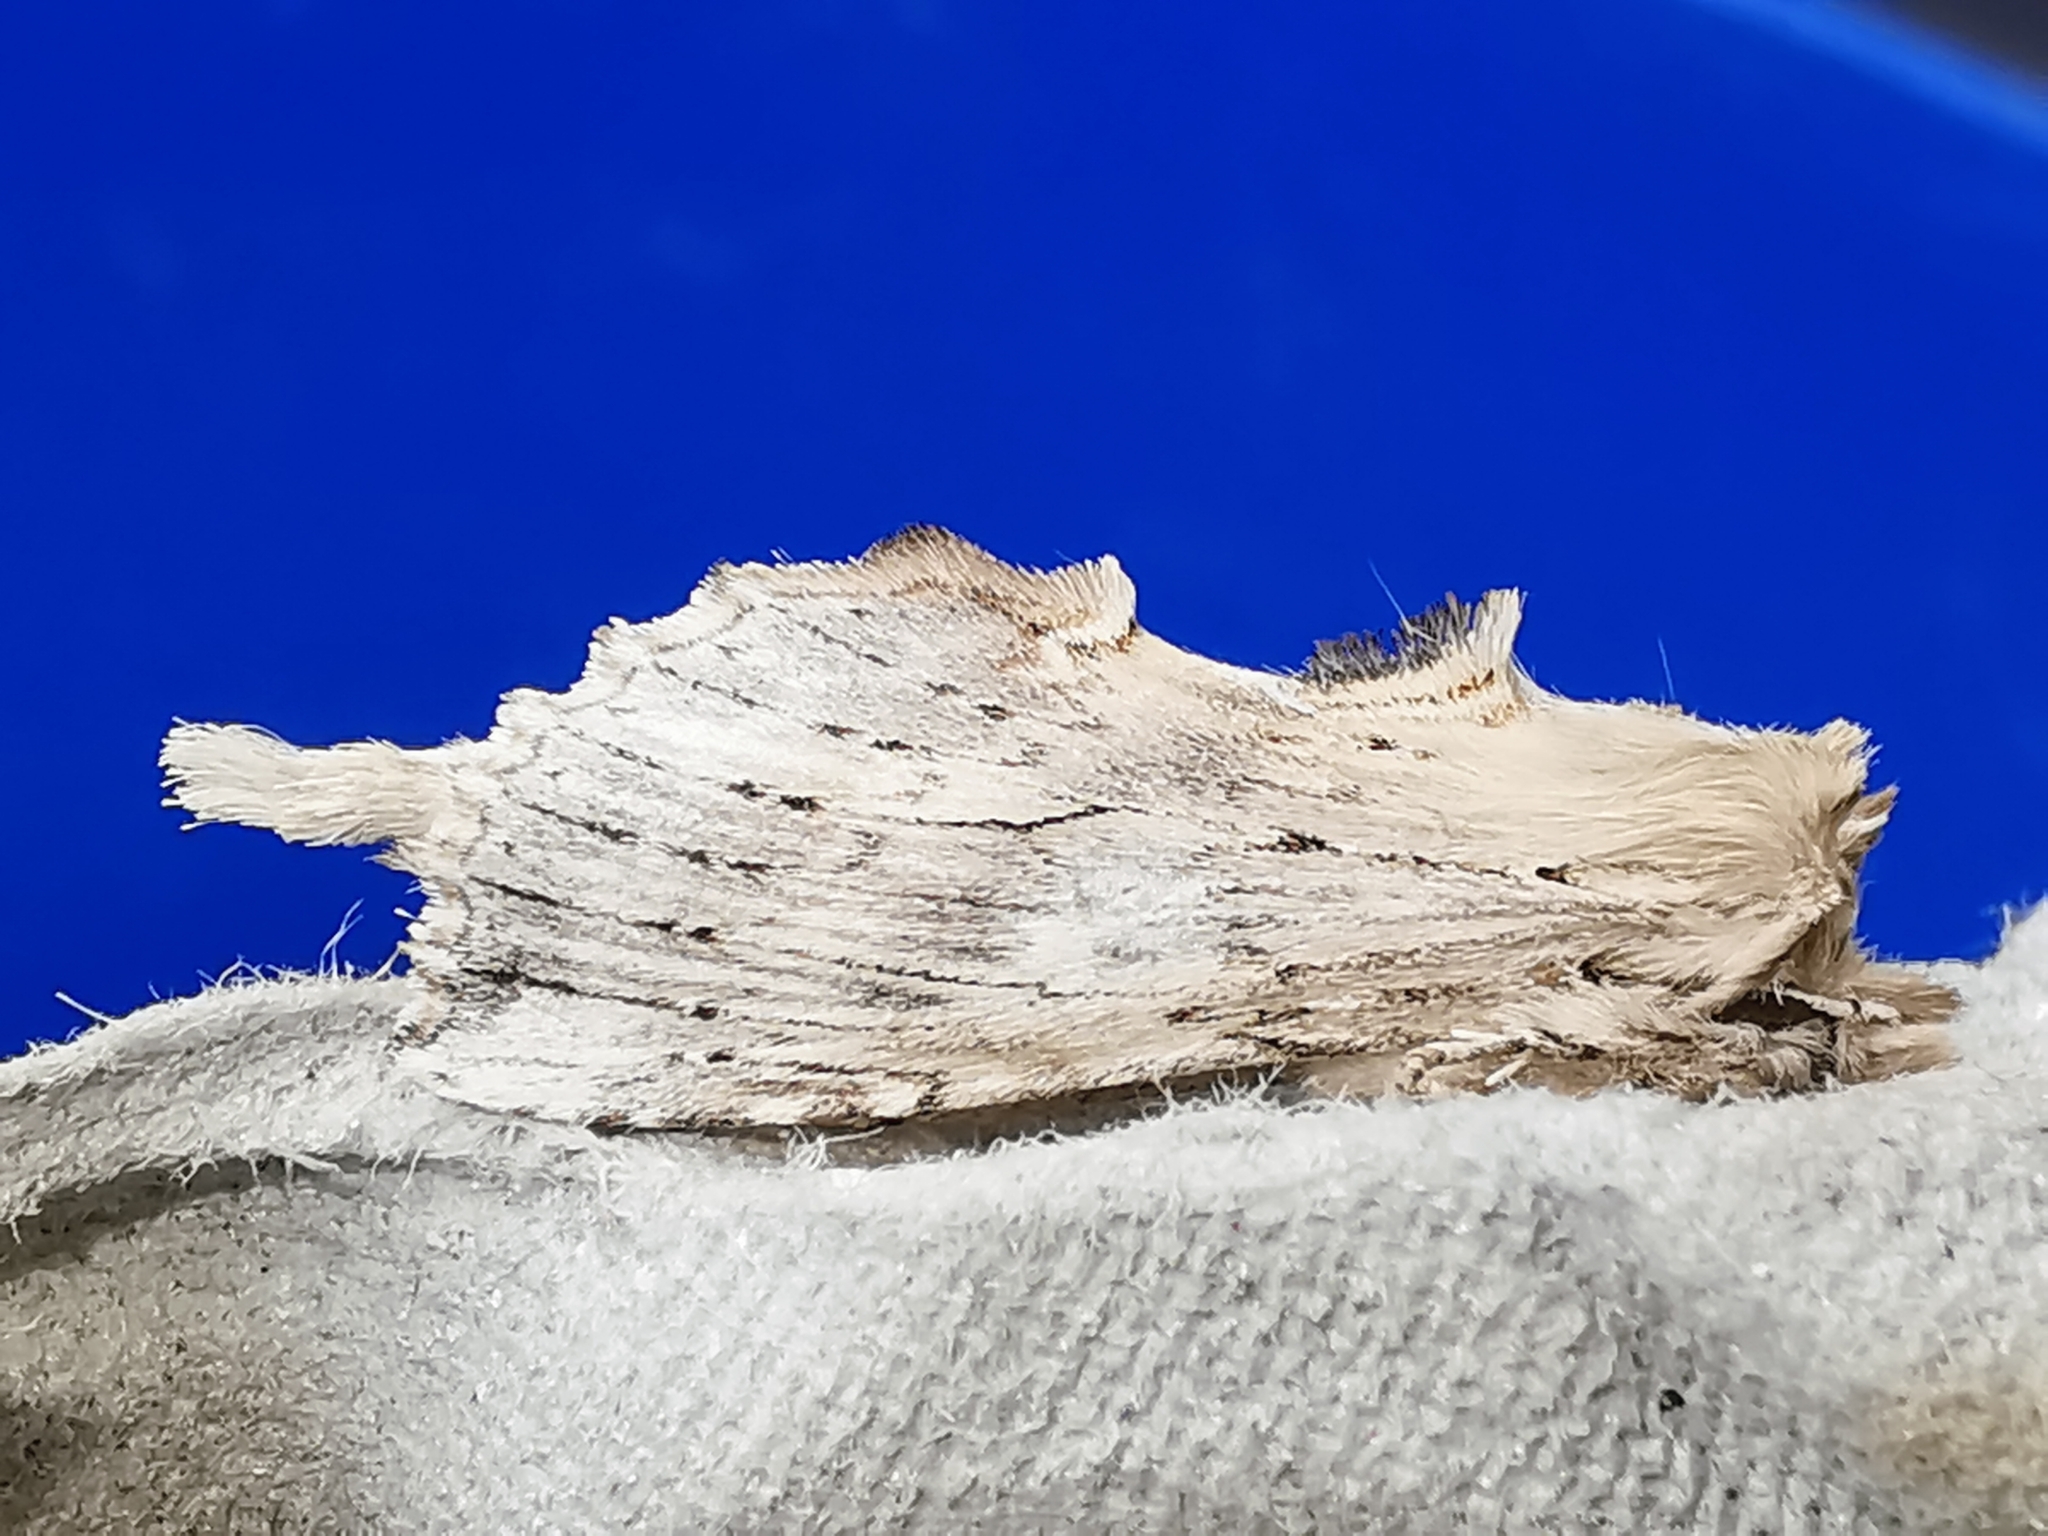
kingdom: Animalia
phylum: Arthropoda
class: Insecta
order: Lepidoptera
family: Notodontidae
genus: Pterostoma
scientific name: Pterostoma palpina
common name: Pale prominent
